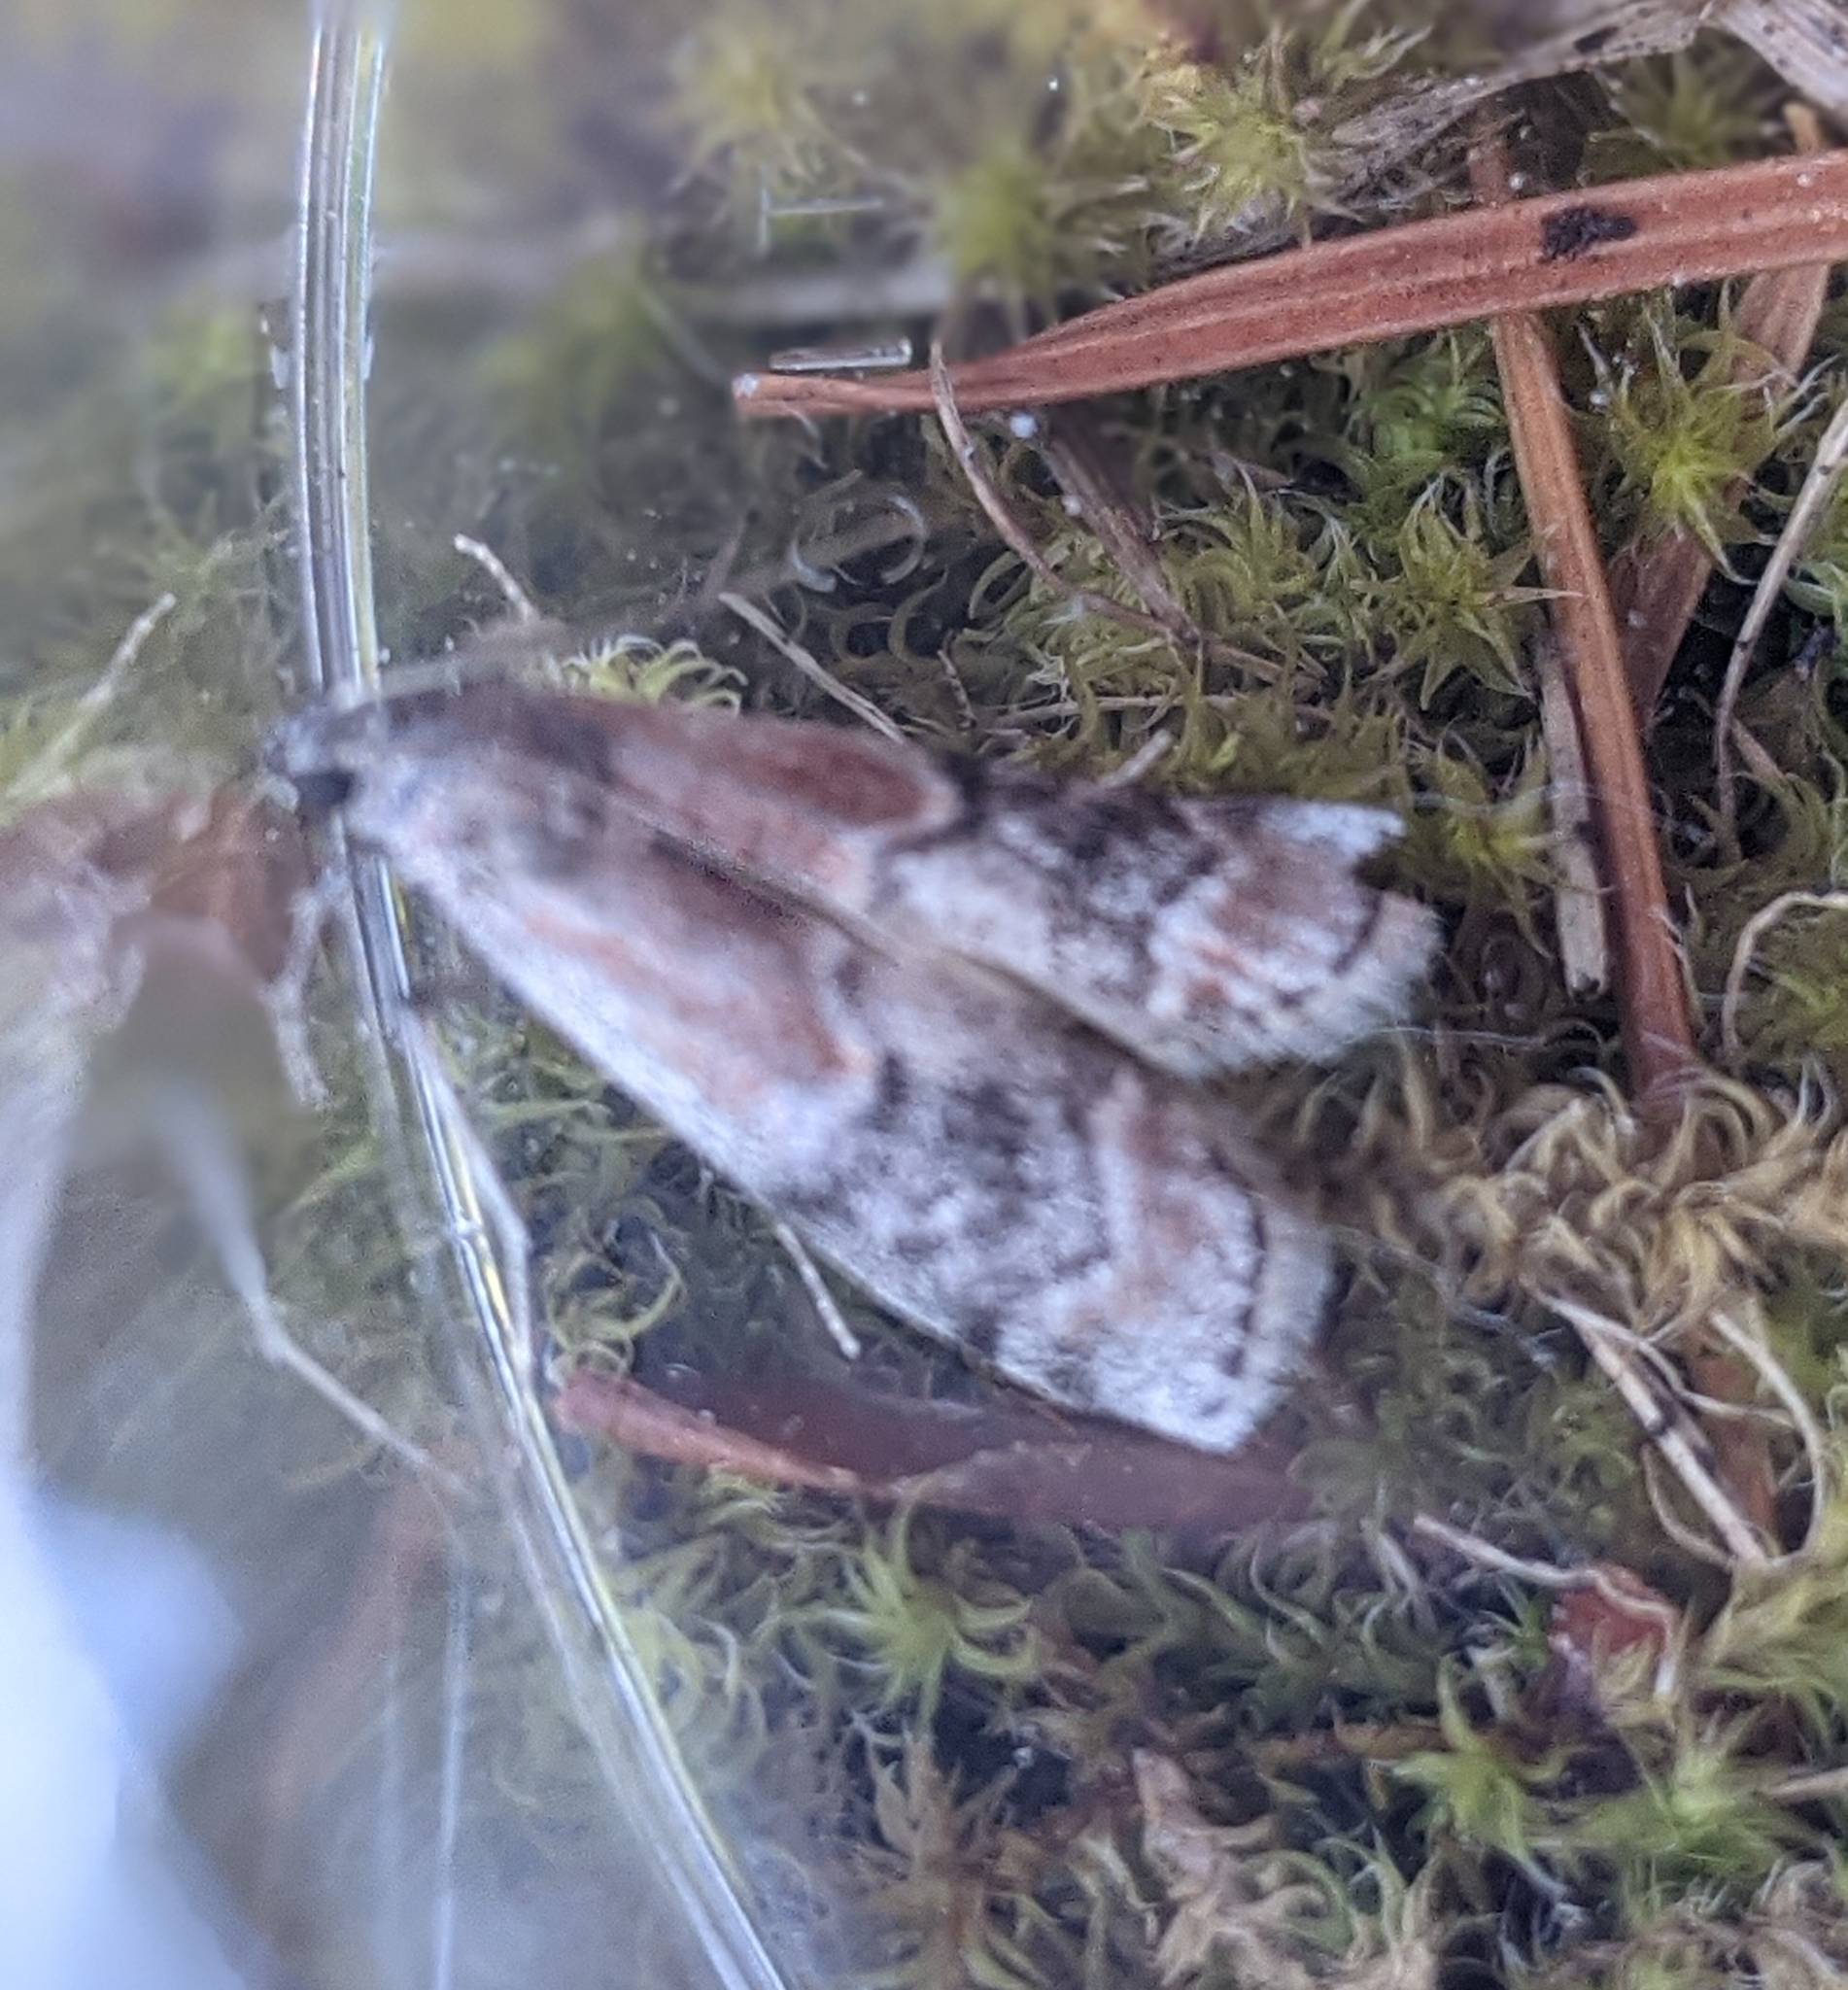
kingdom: Animalia
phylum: Arthropoda
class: Insecta
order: Lepidoptera
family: Pyralidae
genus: Euzophera
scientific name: Euzophera semifuneralis
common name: American plum borer moth
